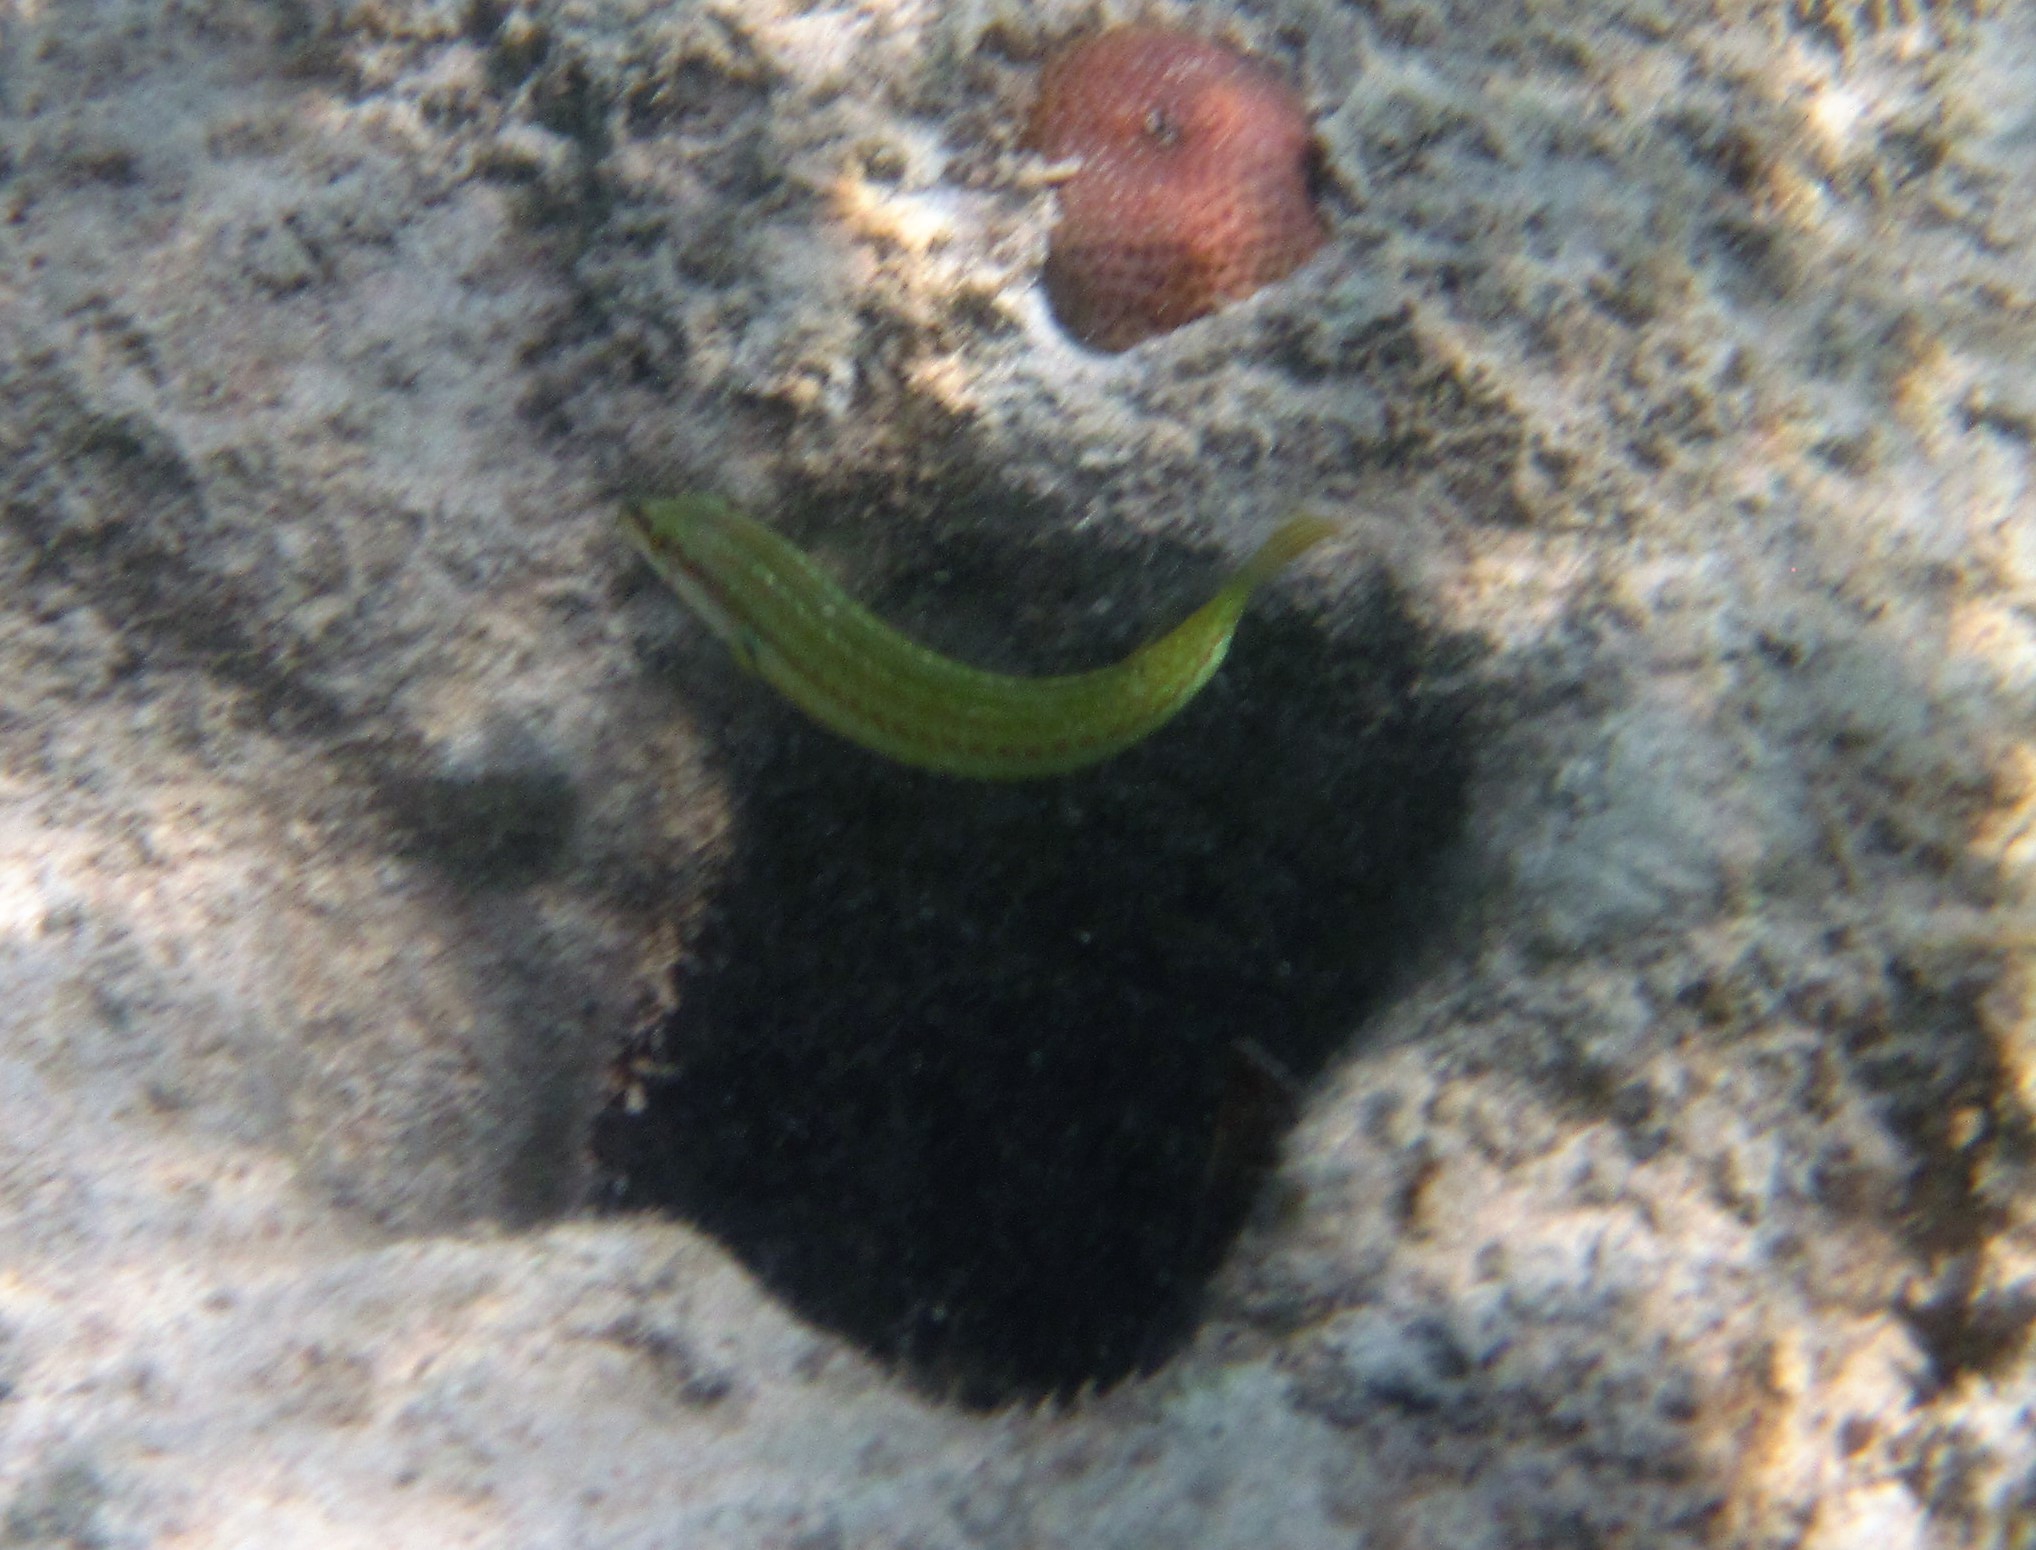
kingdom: Animalia
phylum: Chordata
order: Perciformes
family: Labridae
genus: Halichoeres
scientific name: Halichoeres bivittatus
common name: Slippery dick
